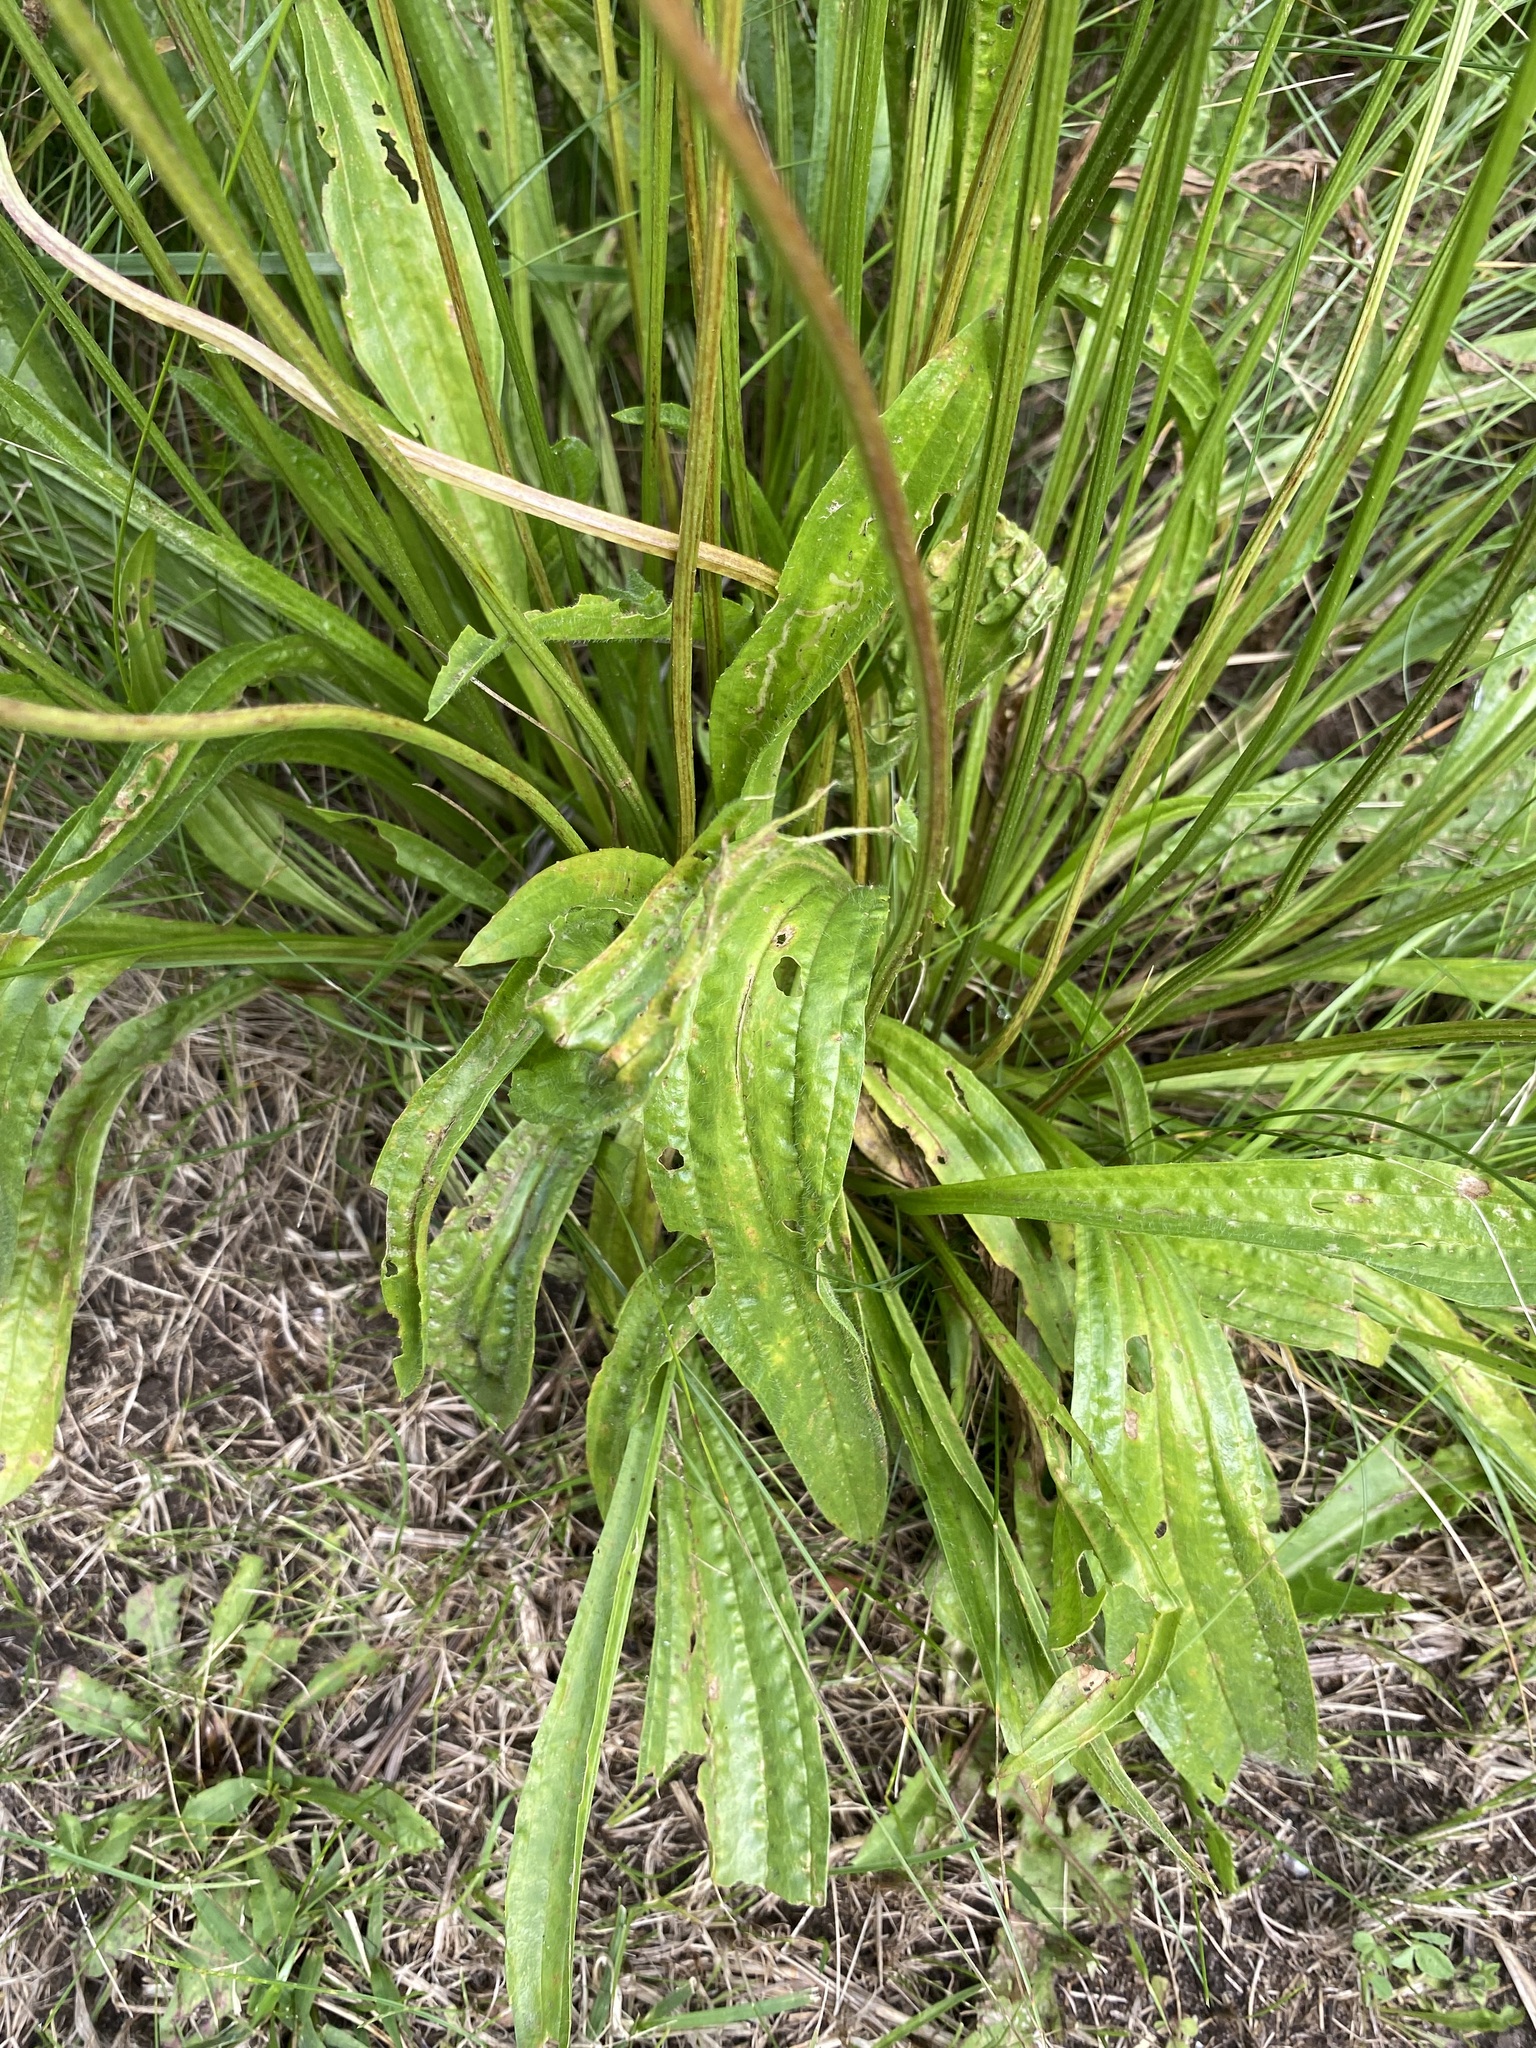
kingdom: Plantae
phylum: Tracheophyta
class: Magnoliopsida
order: Lamiales
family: Plantaginaceae
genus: Plantago
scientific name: Plantago lanceolata
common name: Ribwort plantain
